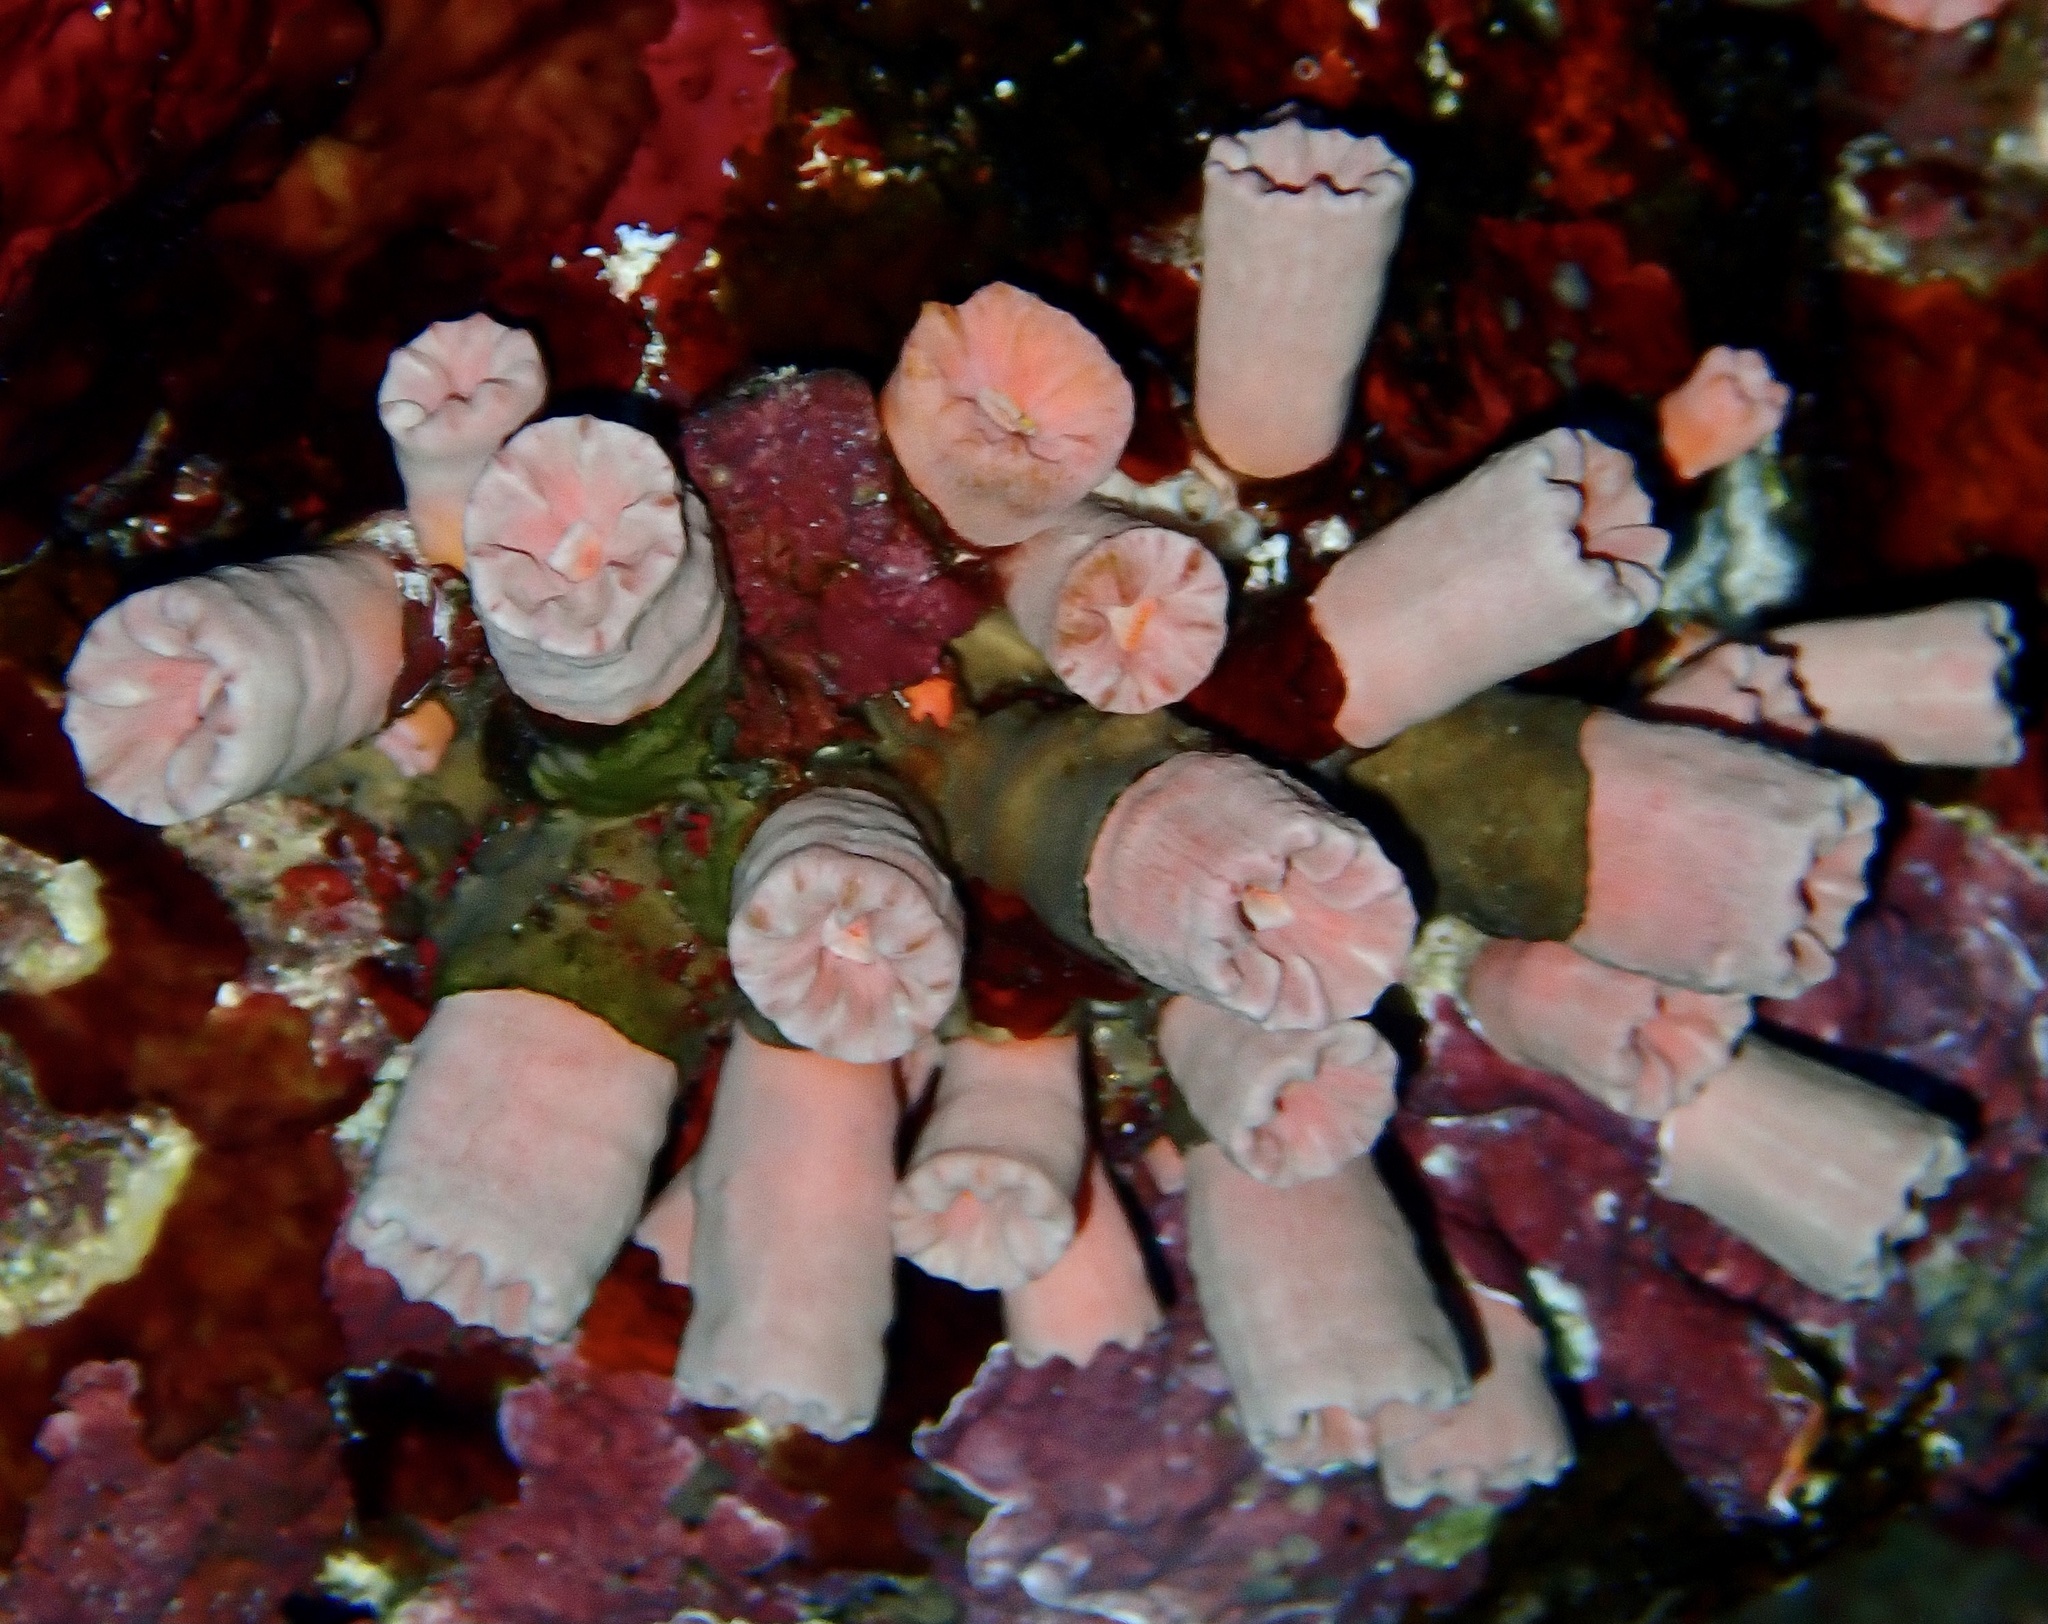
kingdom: Animalia
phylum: Cnidaria
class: Anthozoa
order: Scleractinia
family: Dendrophylliidae
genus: Cladopsammia
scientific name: Cladopsammia gracilis
